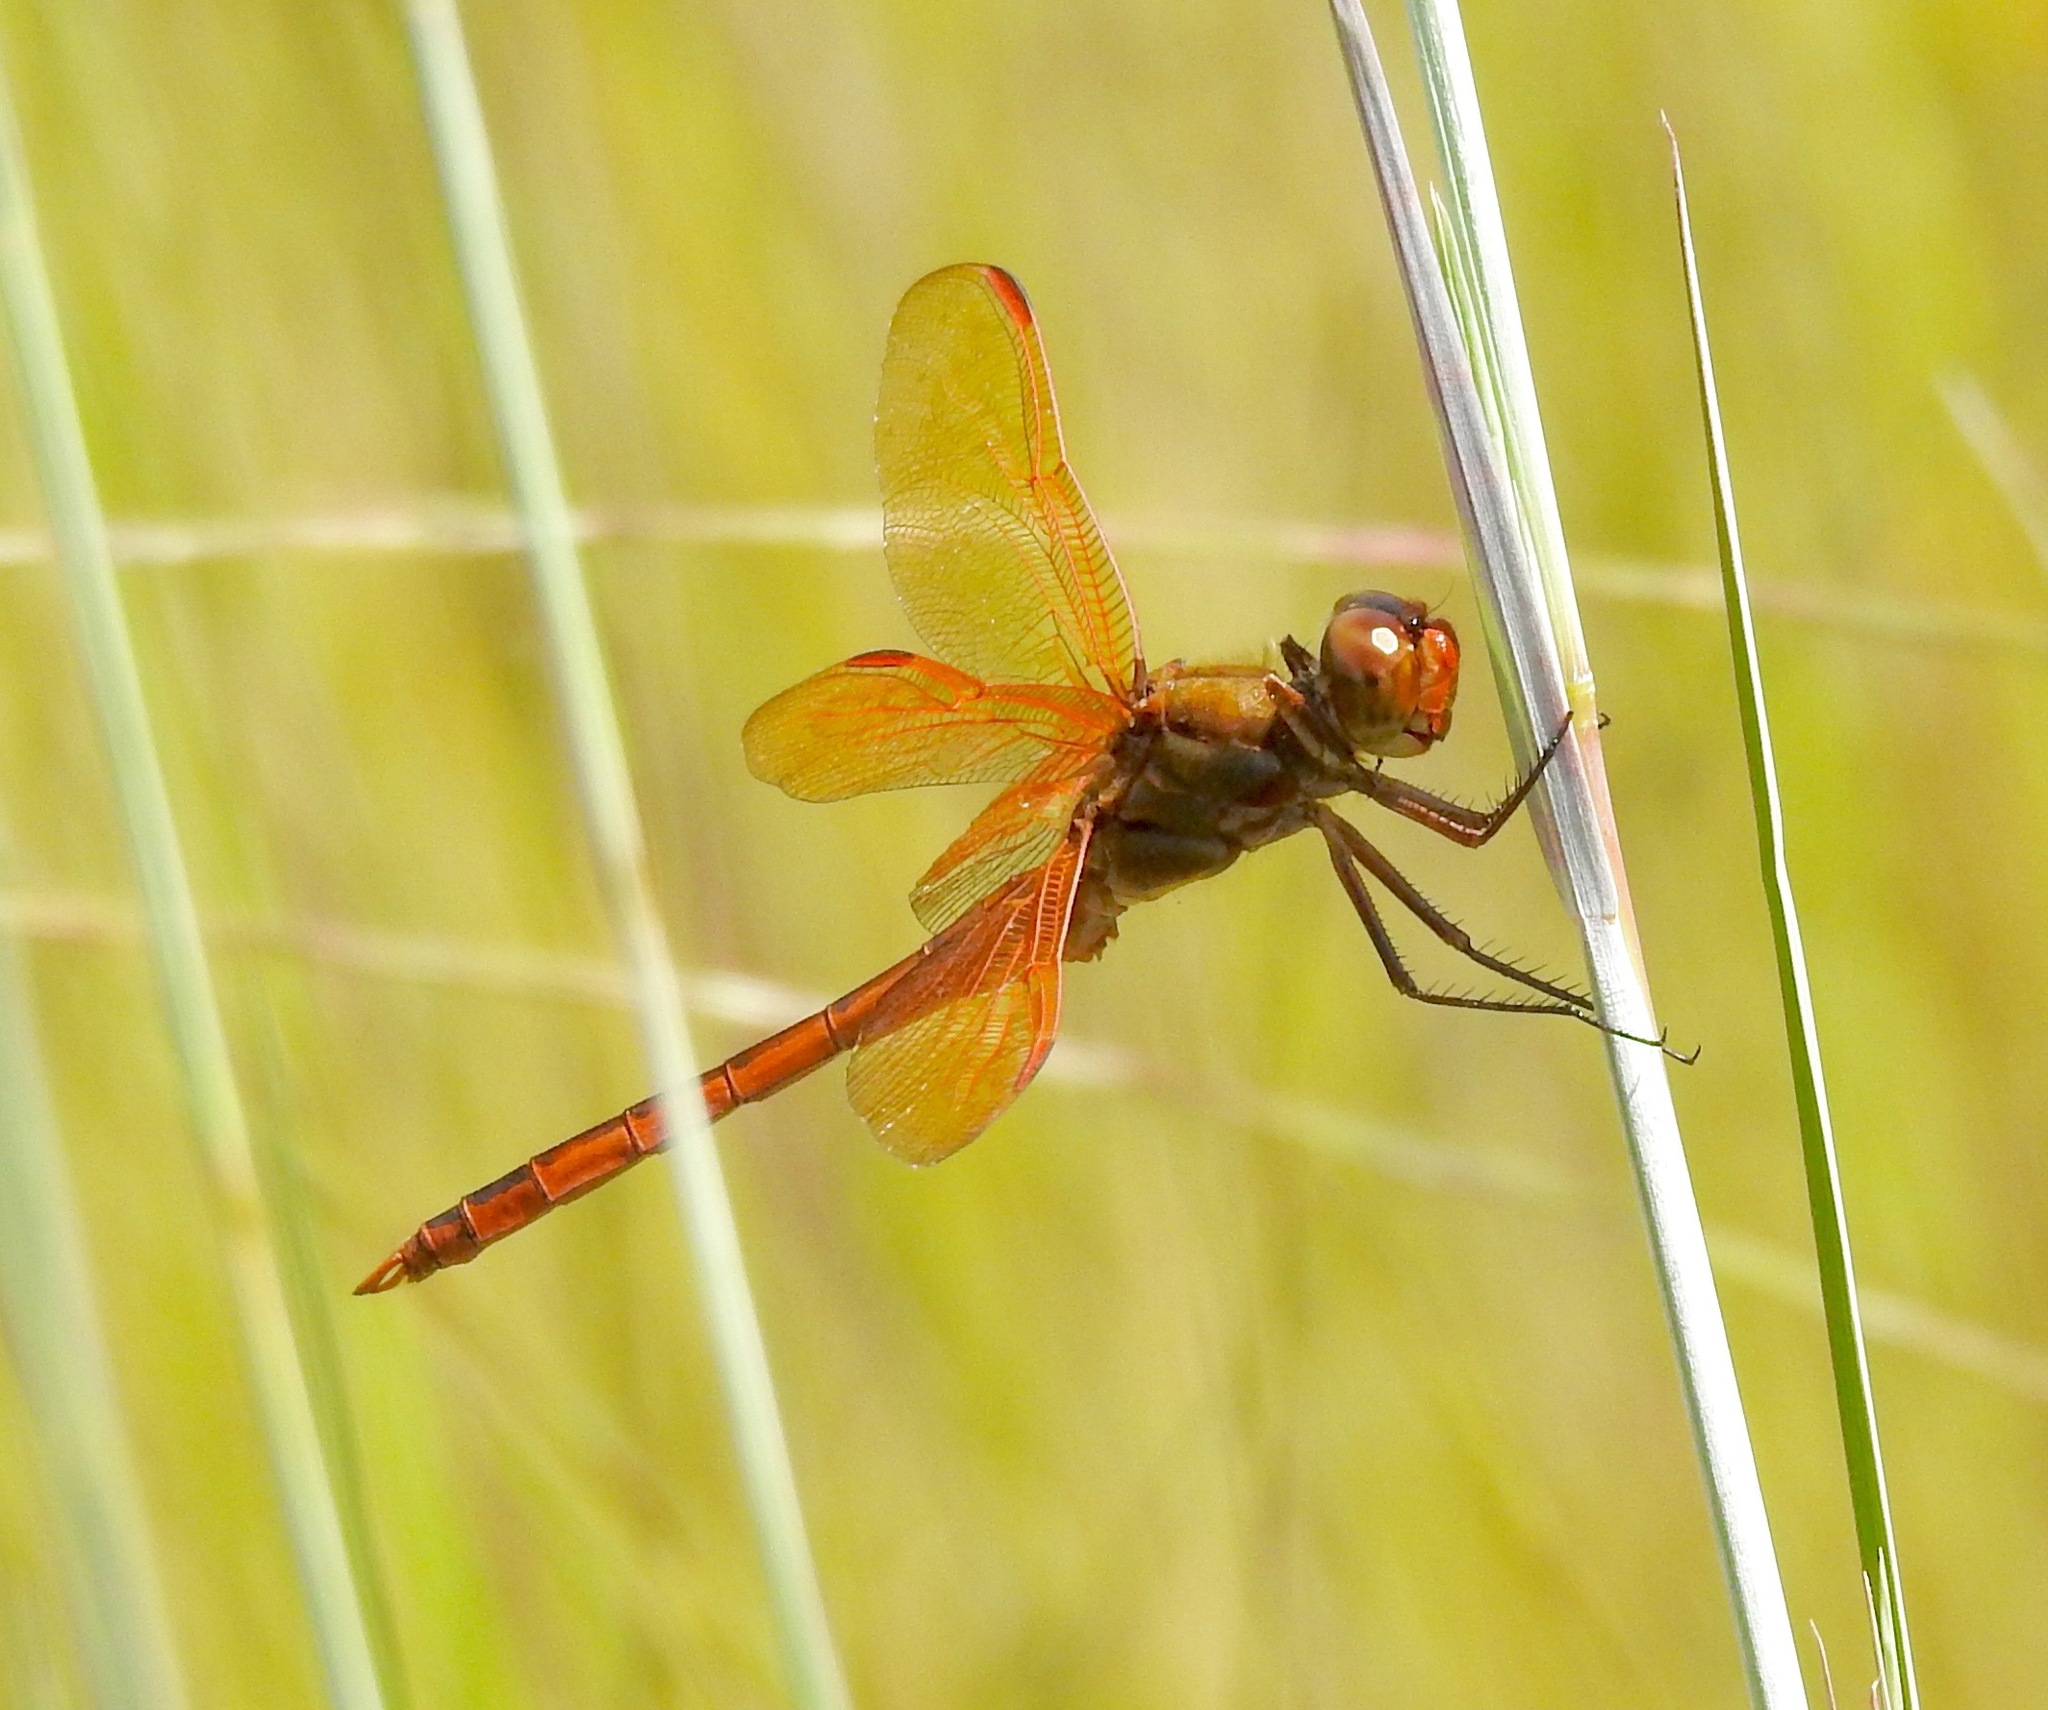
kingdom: Animalia
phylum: Arthropoda
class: Insecta
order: Odonata
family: Libellulidae
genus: Libellula
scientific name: Libellula auripennis
